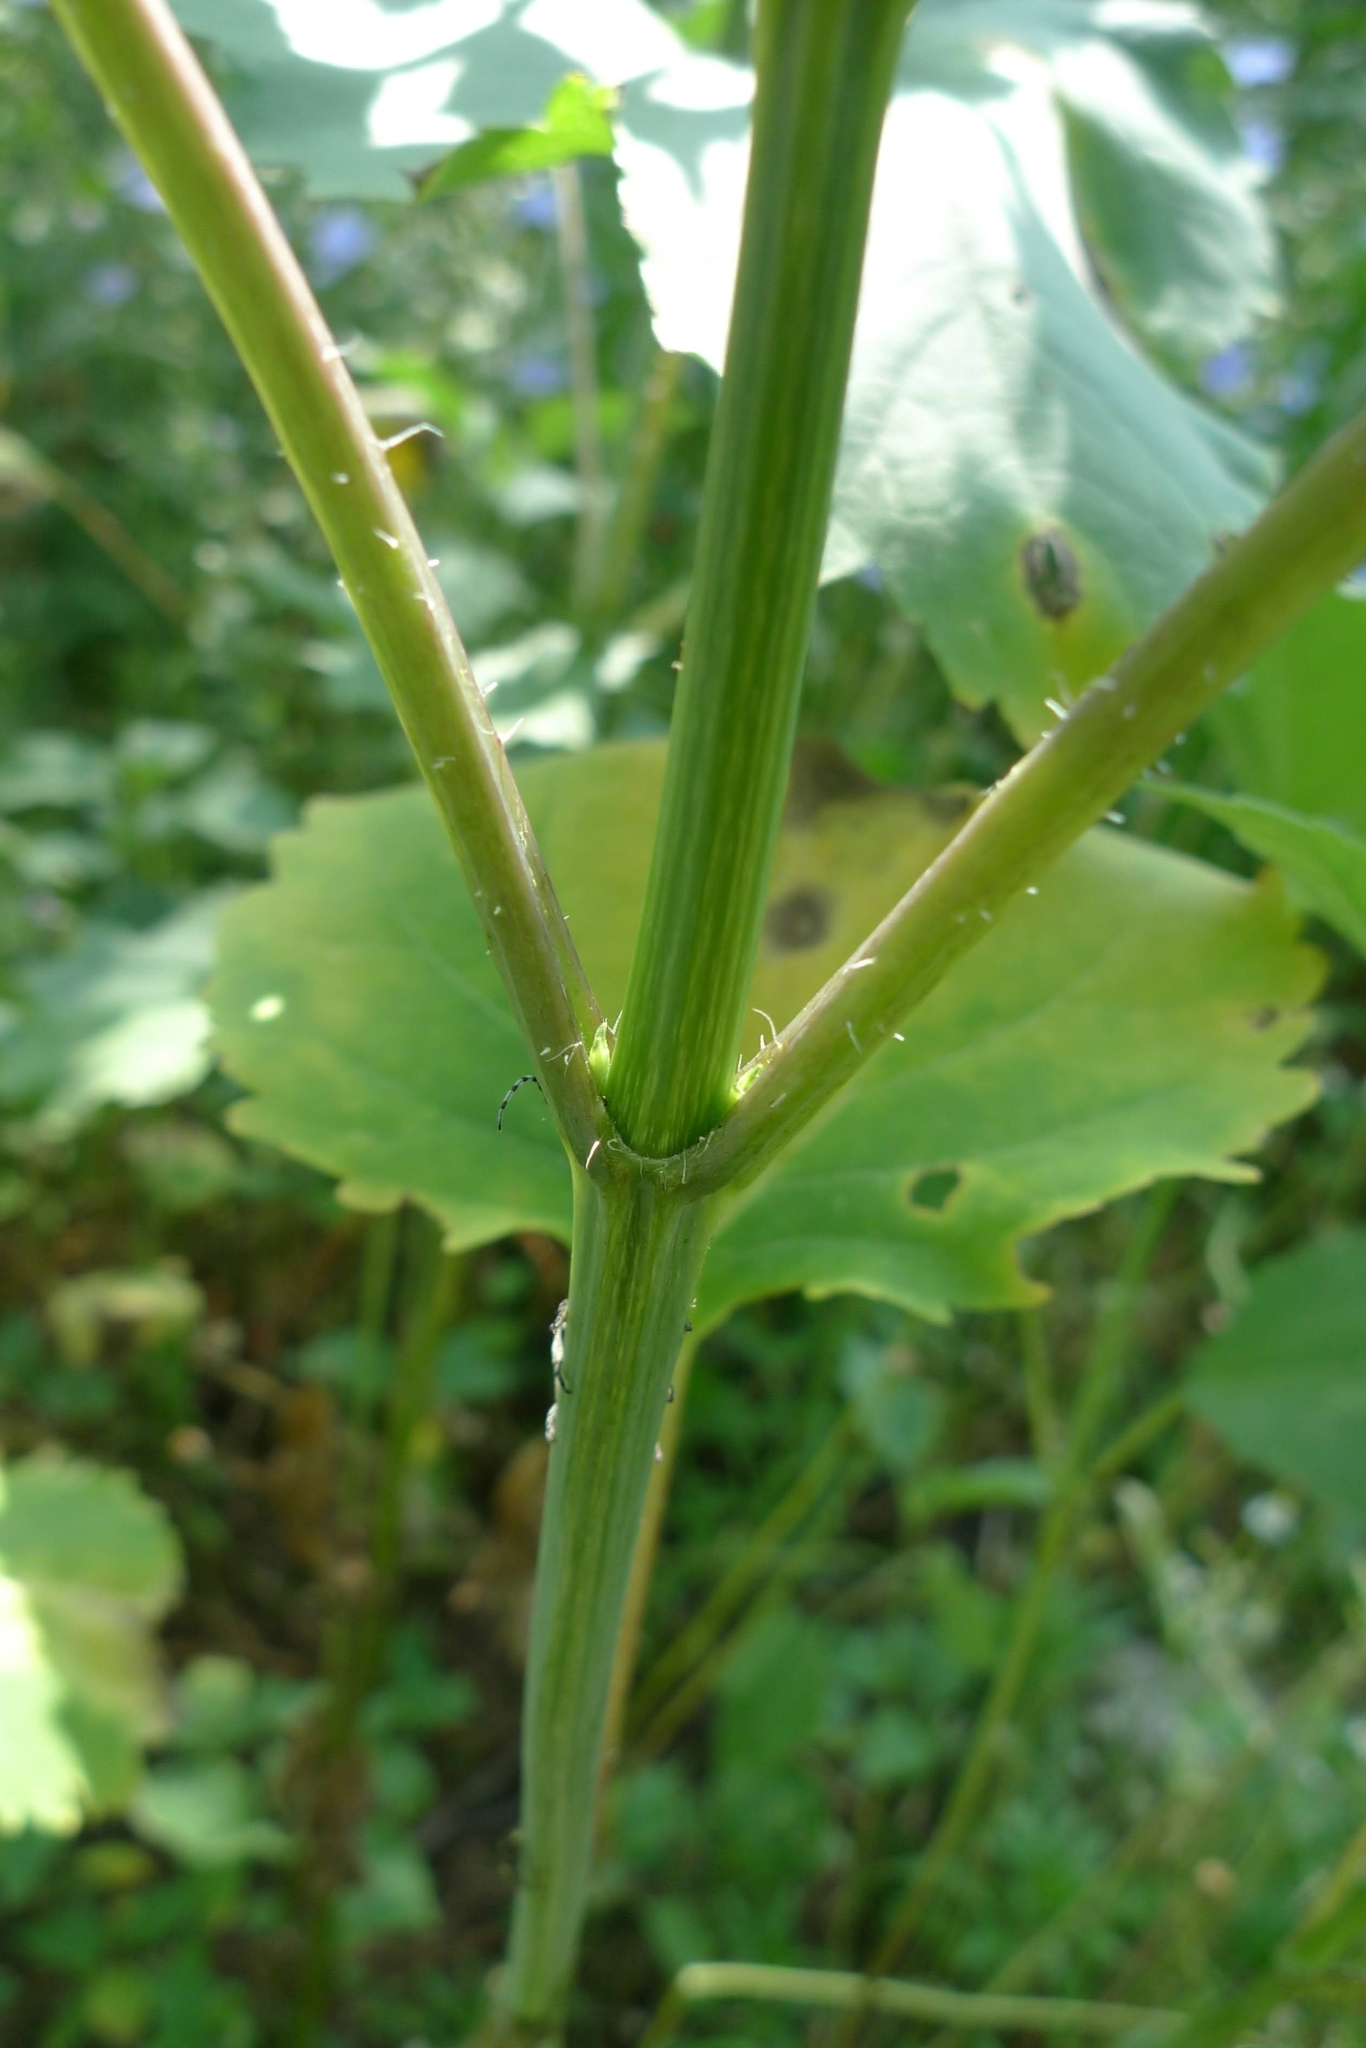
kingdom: Plantae
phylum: Tracheophyta
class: Magnoliopsida
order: Asterales
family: Asteraceae
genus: Cyclachaena
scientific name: Cyclachaena xanthiifolia
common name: Giant sumpweed
